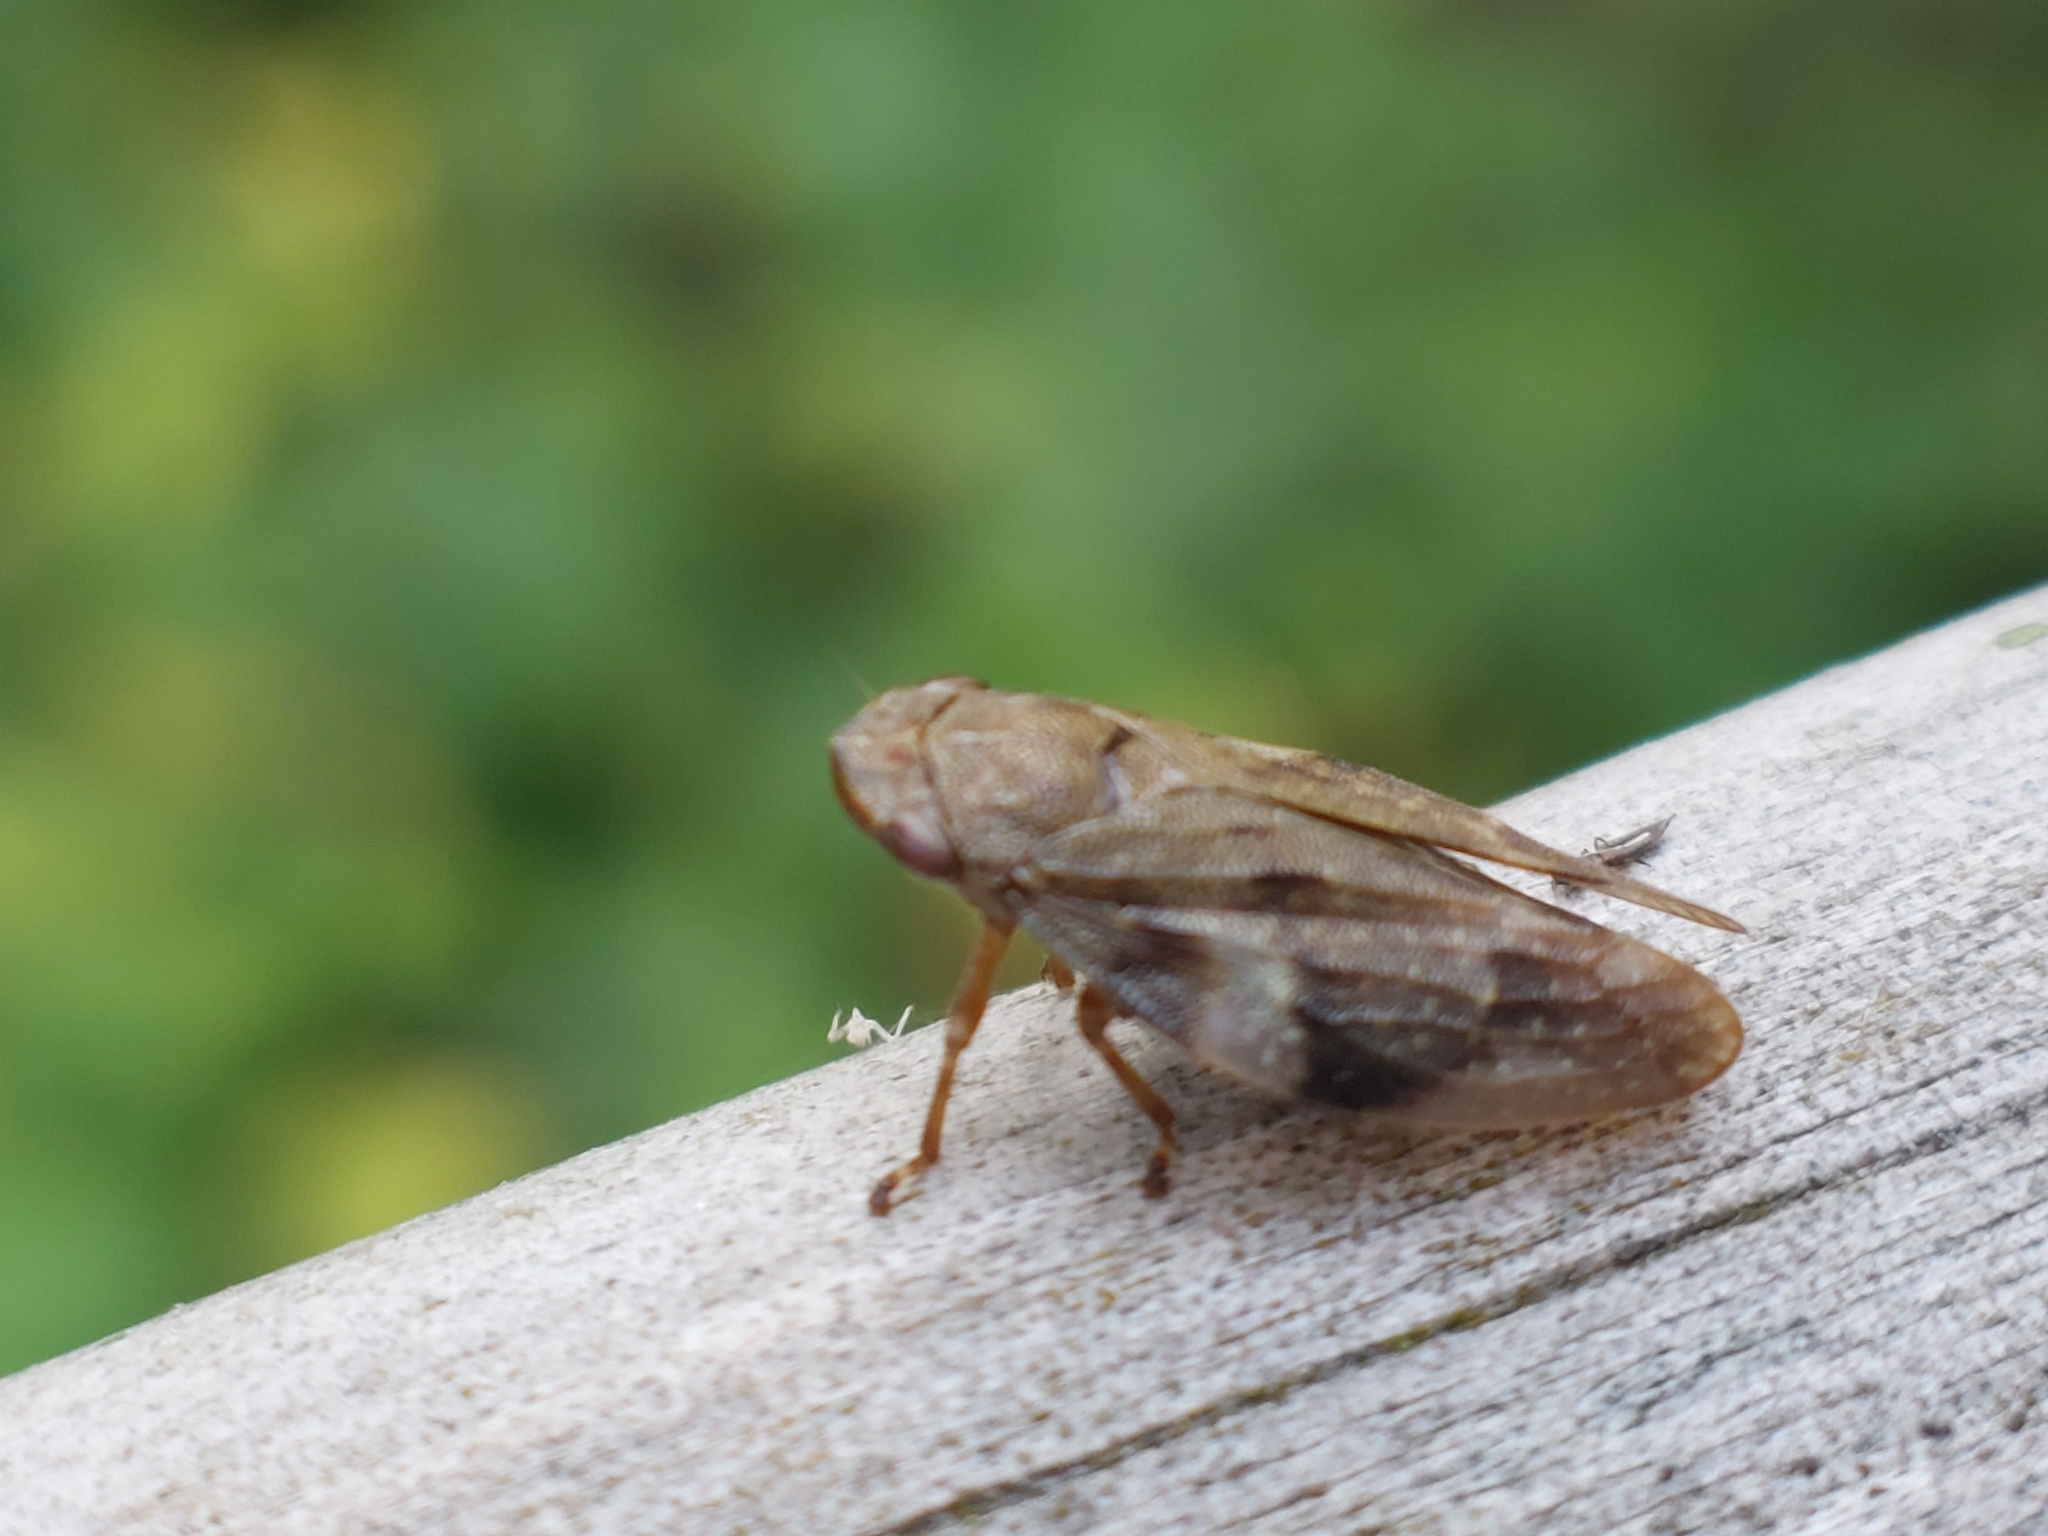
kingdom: Animalia
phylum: Arthropoda
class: Insecta
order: Hemiptera
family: Aphrophoridae
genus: Aphrophora
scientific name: Aphrophora alni
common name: European alder spittlebug
